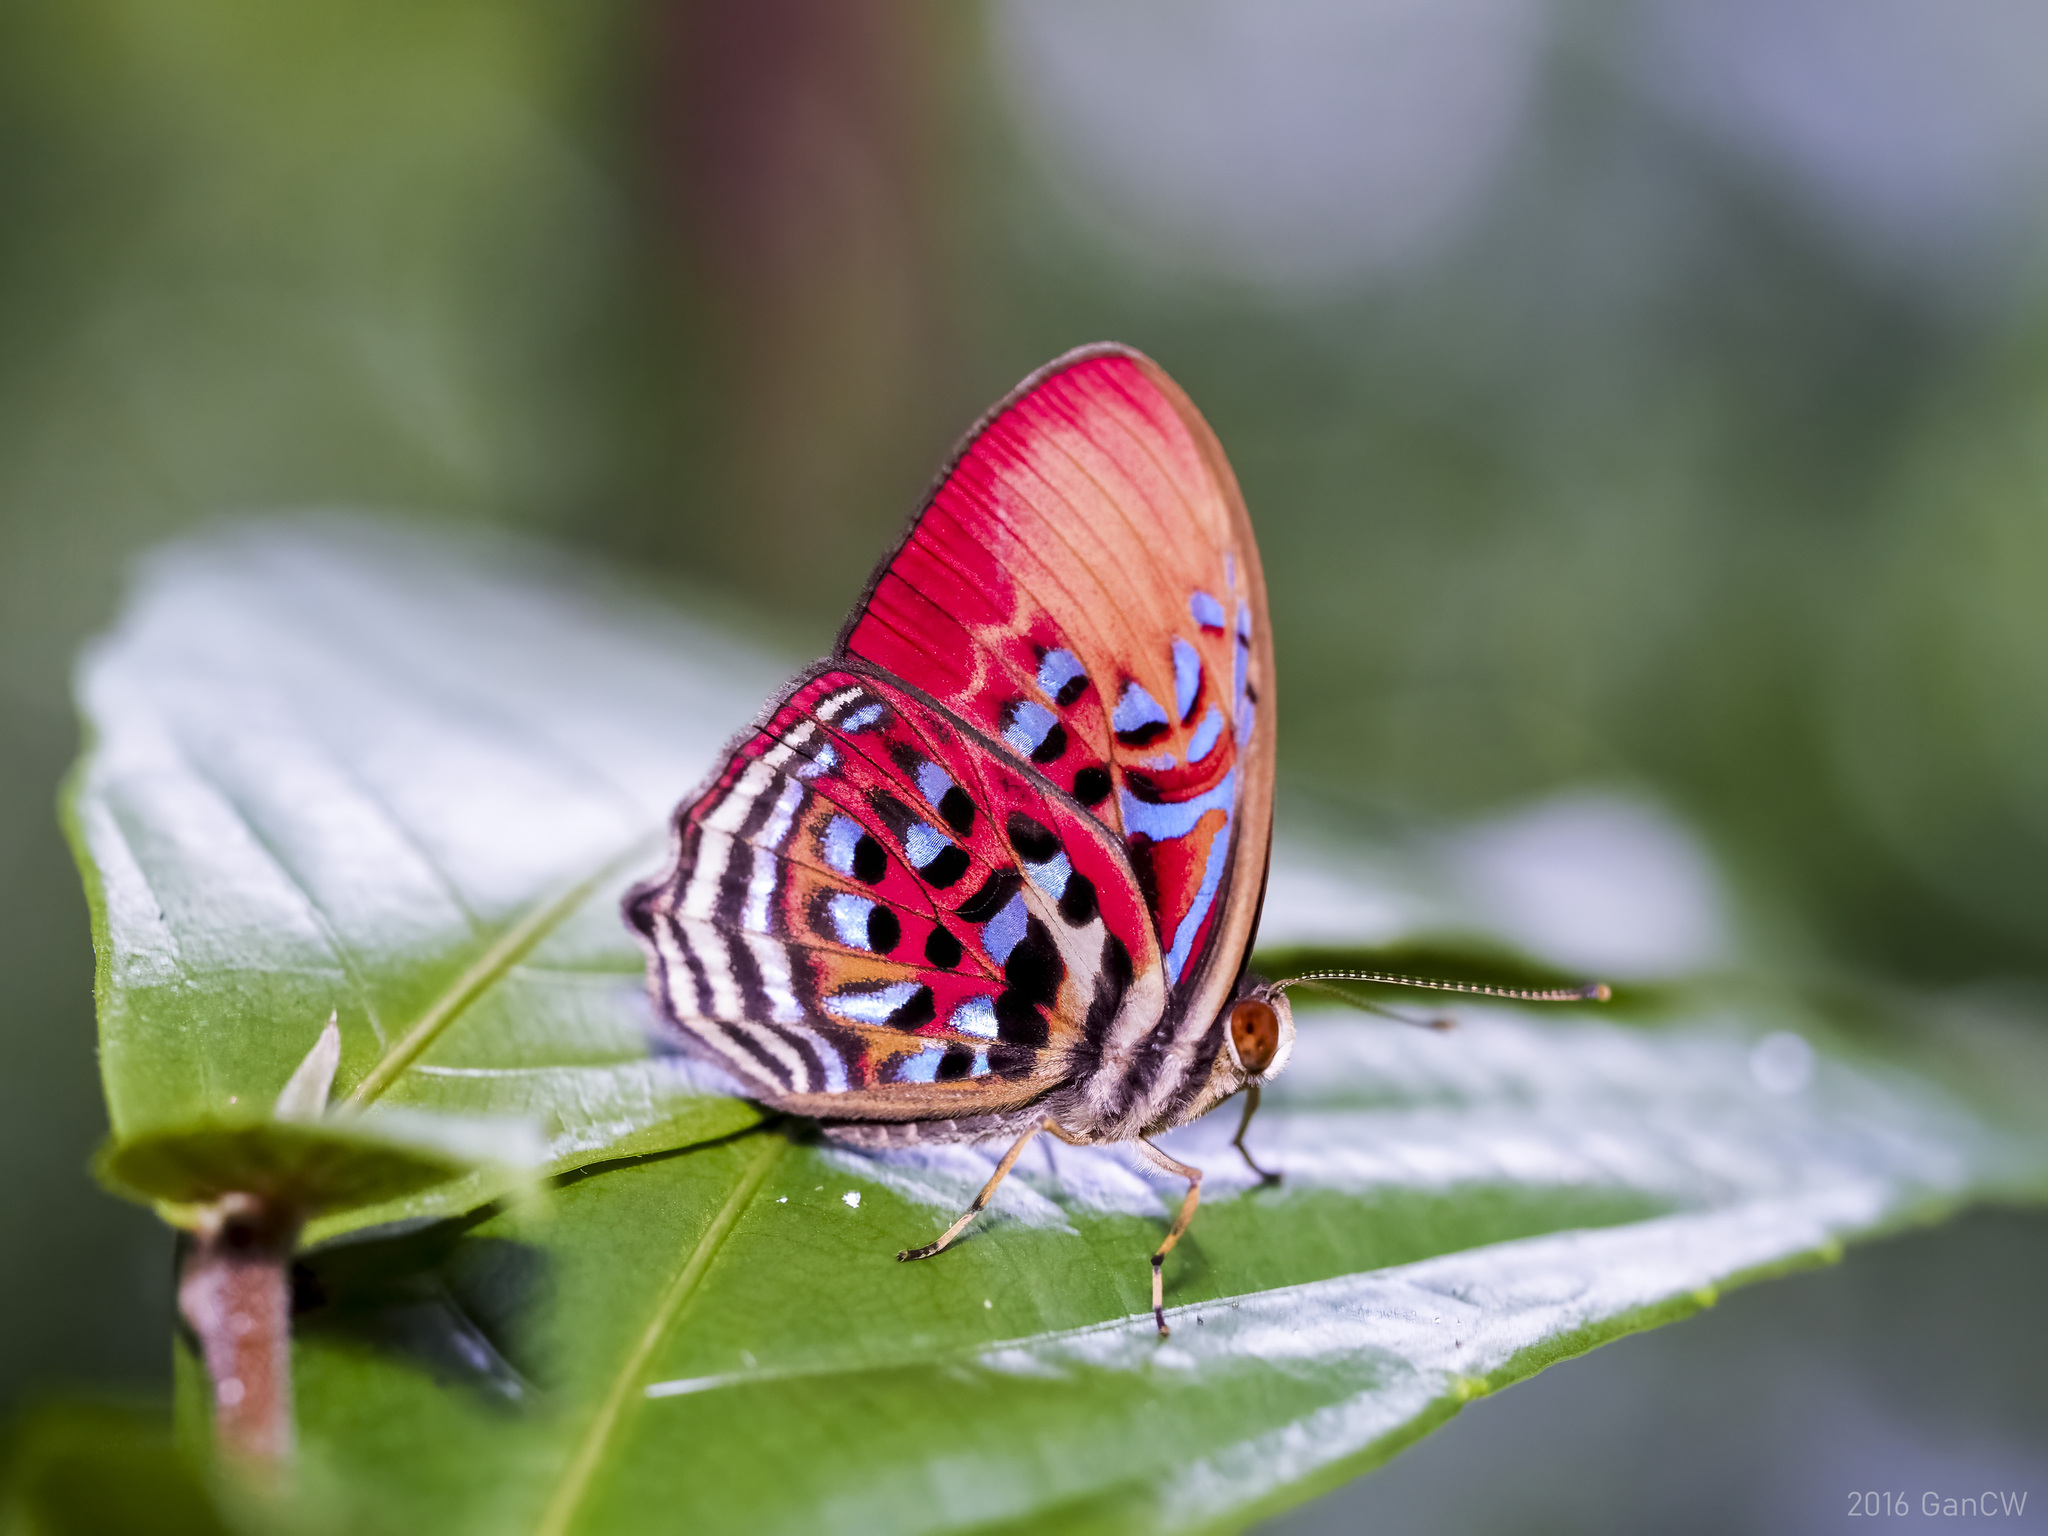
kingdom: Animalia
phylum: Arthropoda
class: Insecta
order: Lepidoptera
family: Riodinidae
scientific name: Riodinidae
